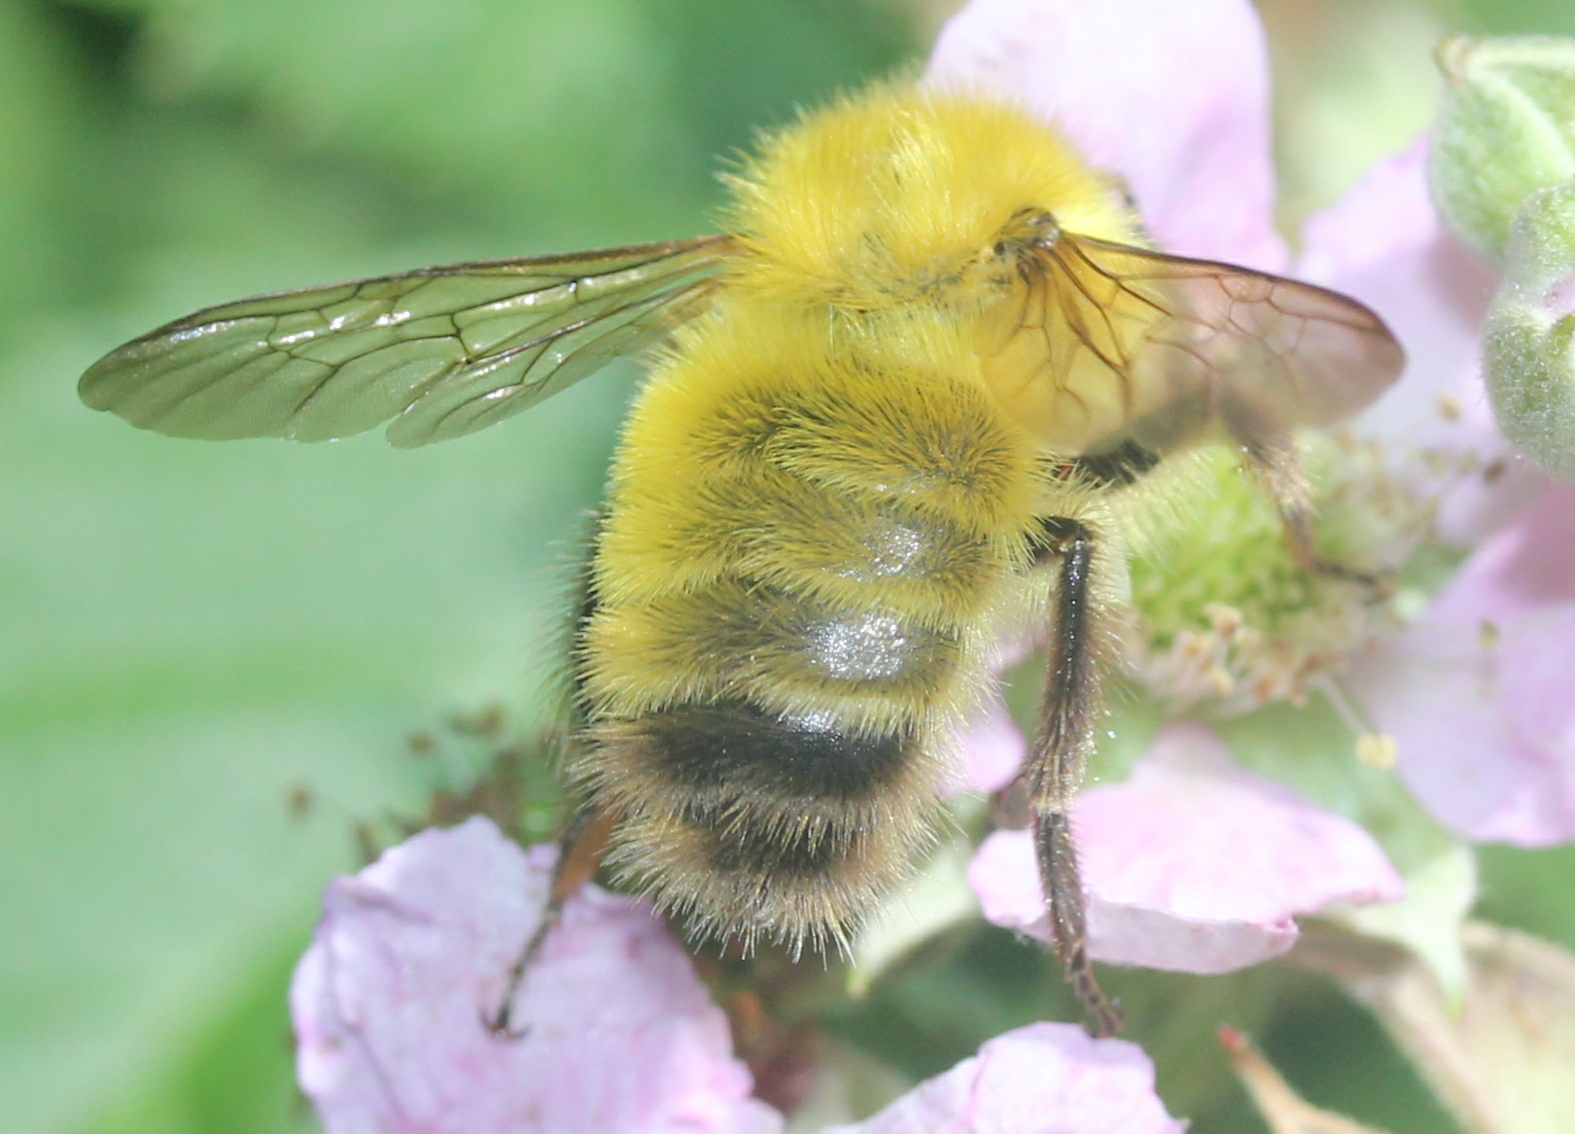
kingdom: Animalia
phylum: Arthropoda
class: Insecta
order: Hymenoptera
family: Apidae
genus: Bombus
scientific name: Bombus perplexus
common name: Confusing bumble bee
